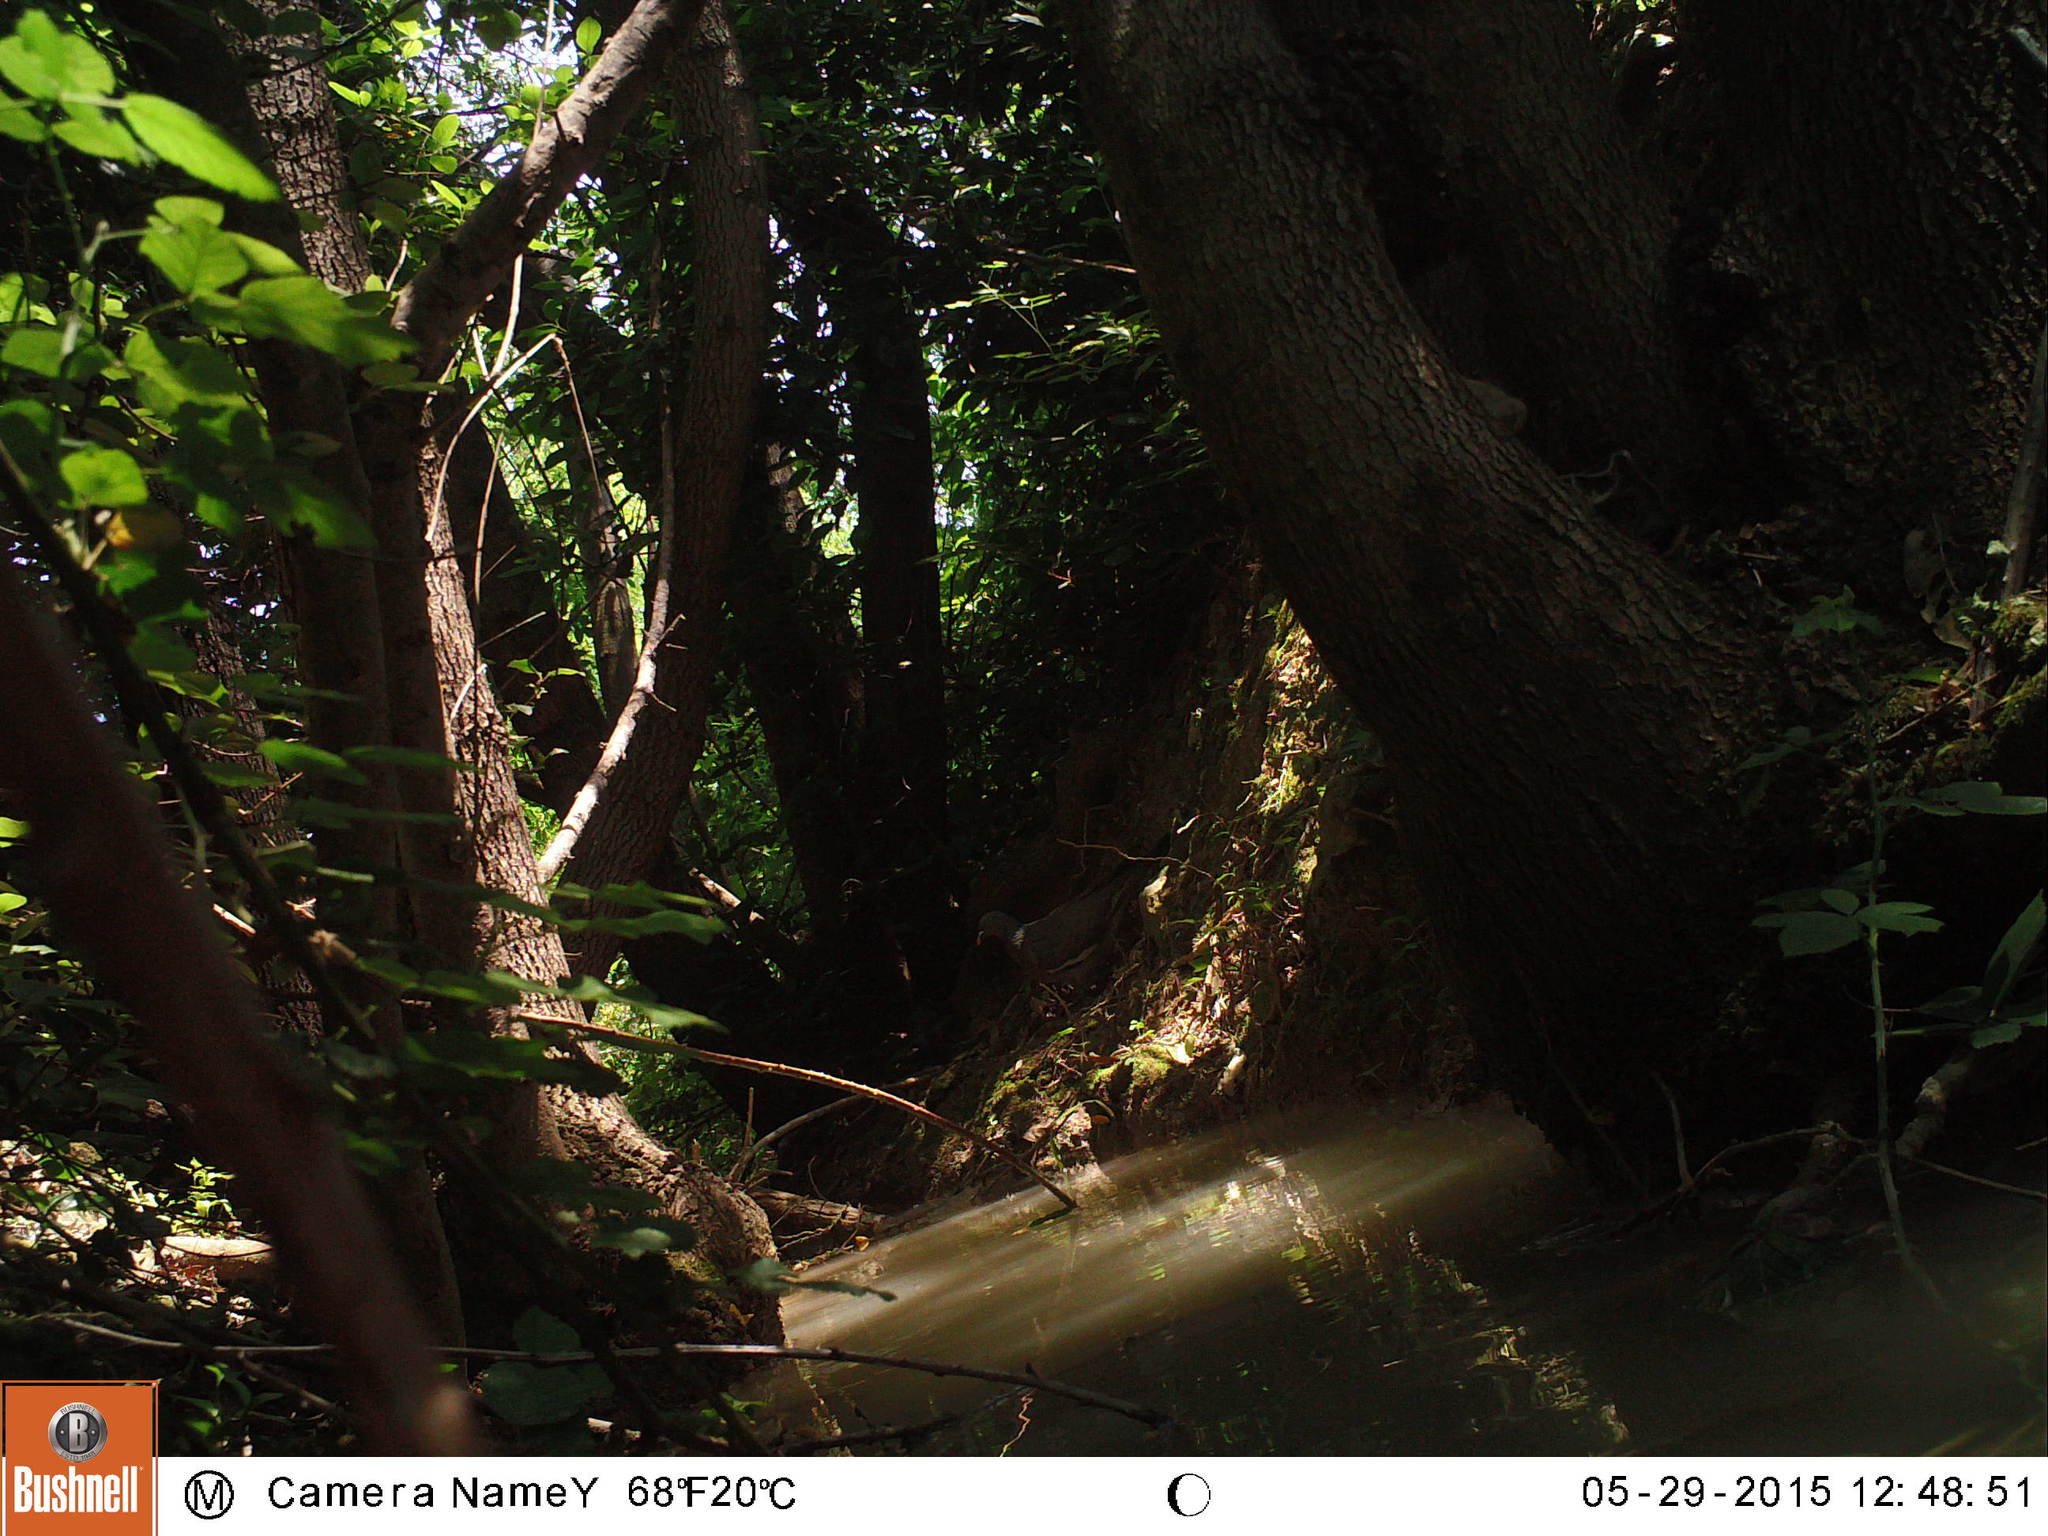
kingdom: Animalia
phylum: Chordata
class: Aves
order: Columbiformes
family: Columbidae
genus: Columba
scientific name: Columba palumbus
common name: Common wood pigeon
